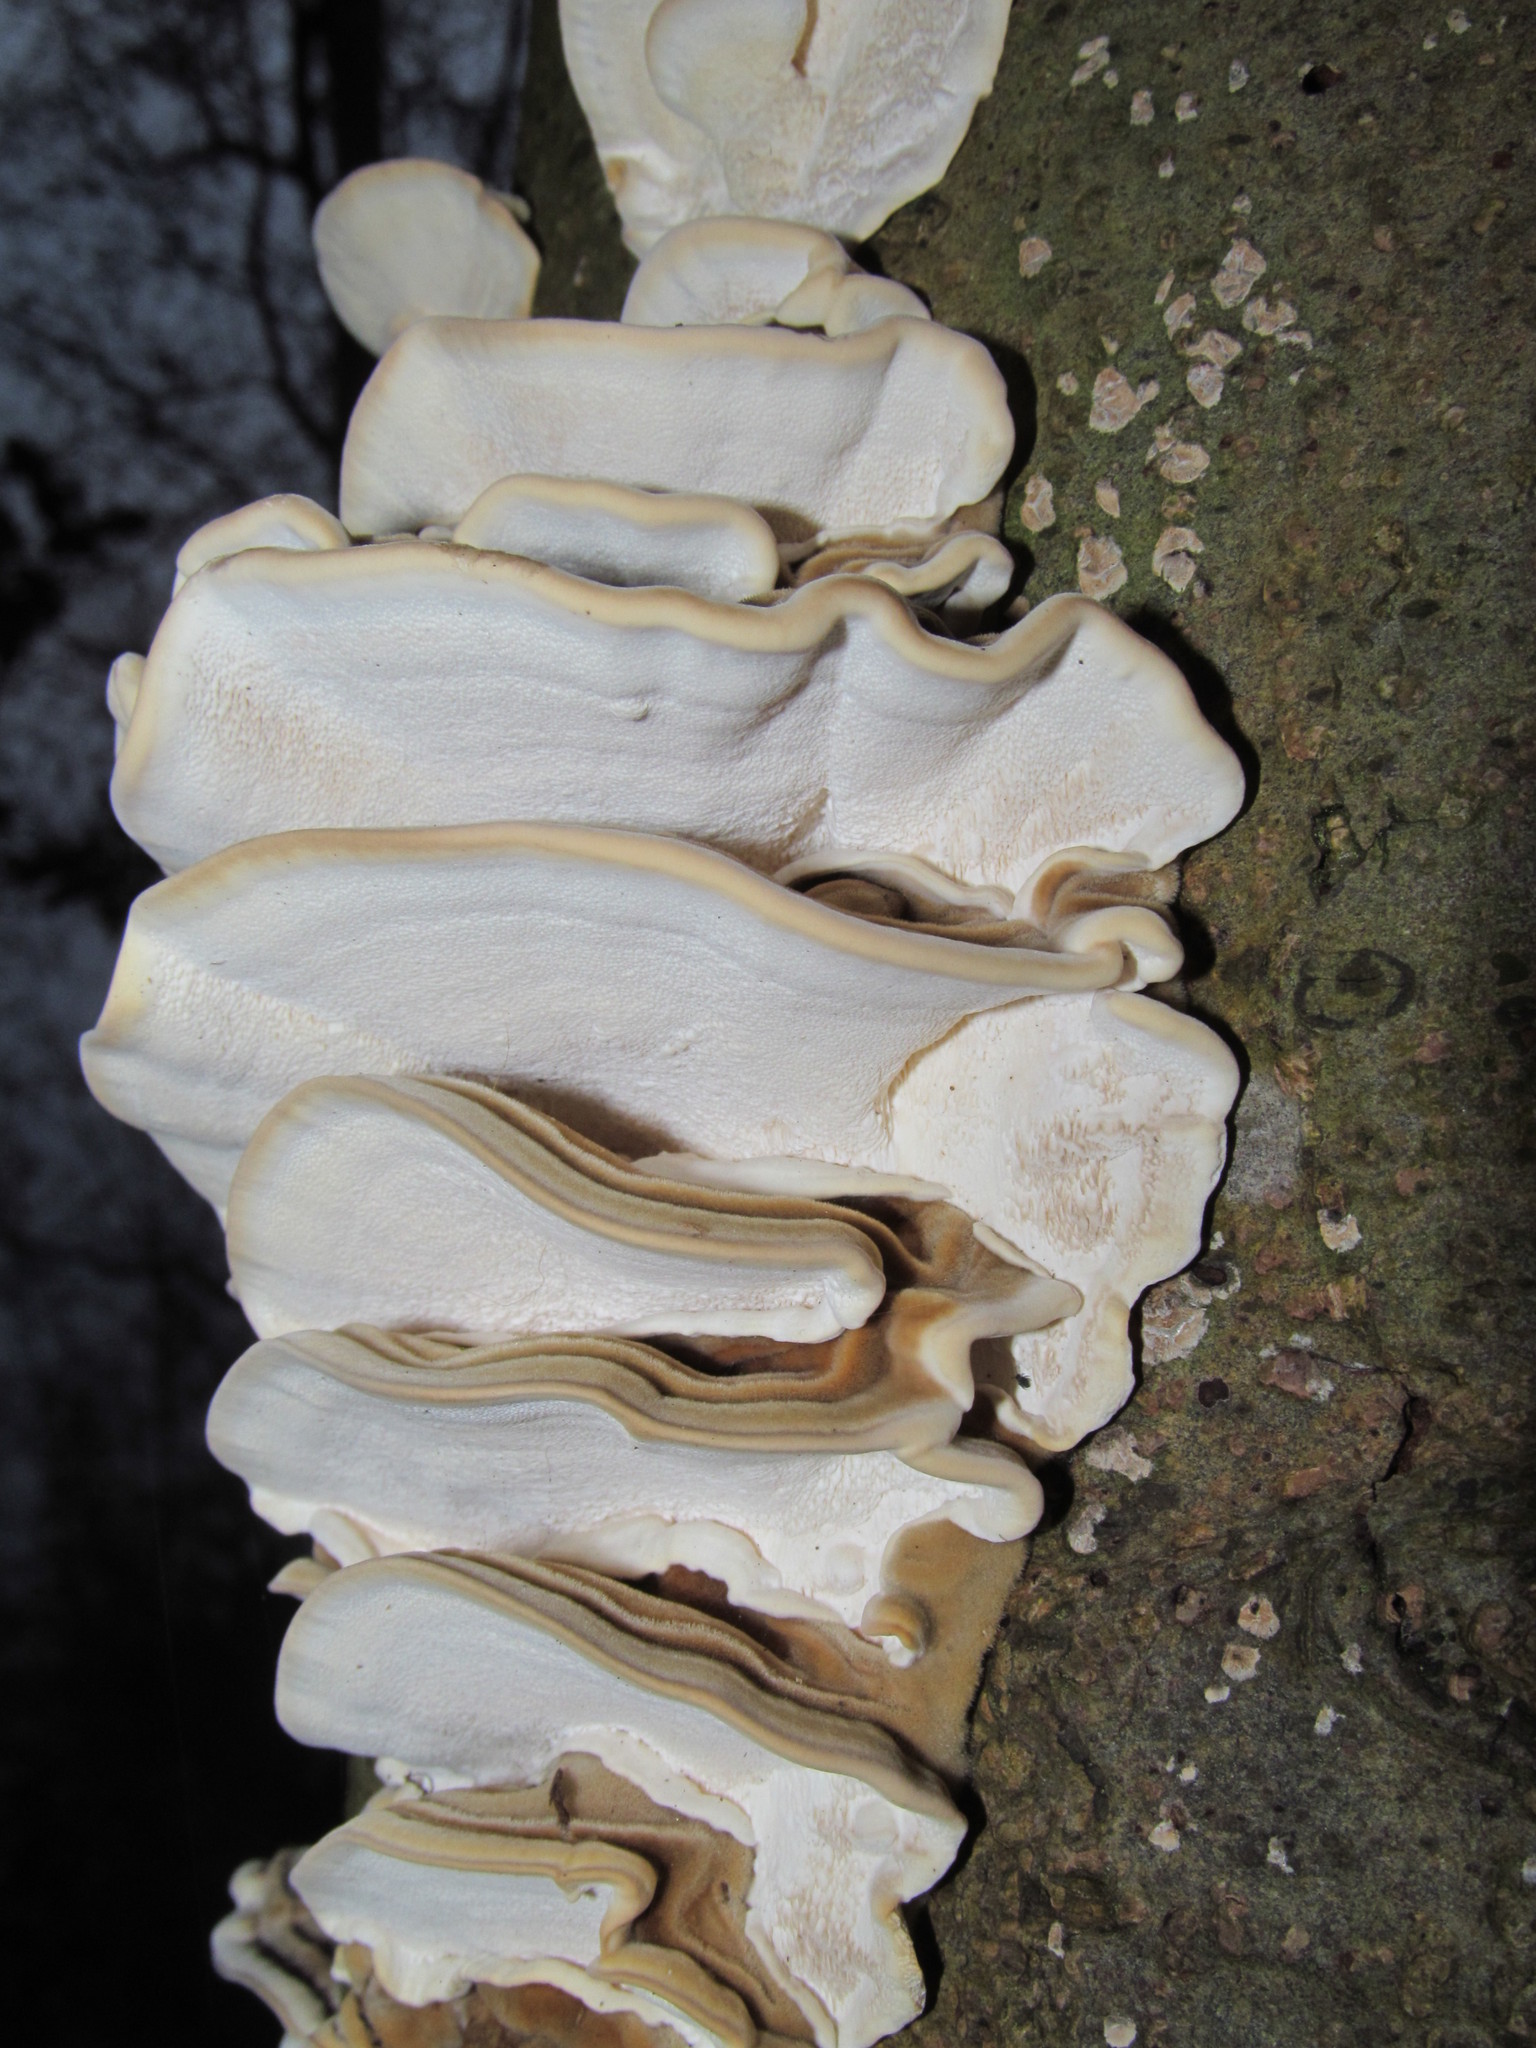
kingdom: Fungi
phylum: Basidiomycota
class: Agaricomycetes
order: Polyporales
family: Polyporaceae
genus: Trametes
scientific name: Trametes versicolor
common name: Turkeytail
